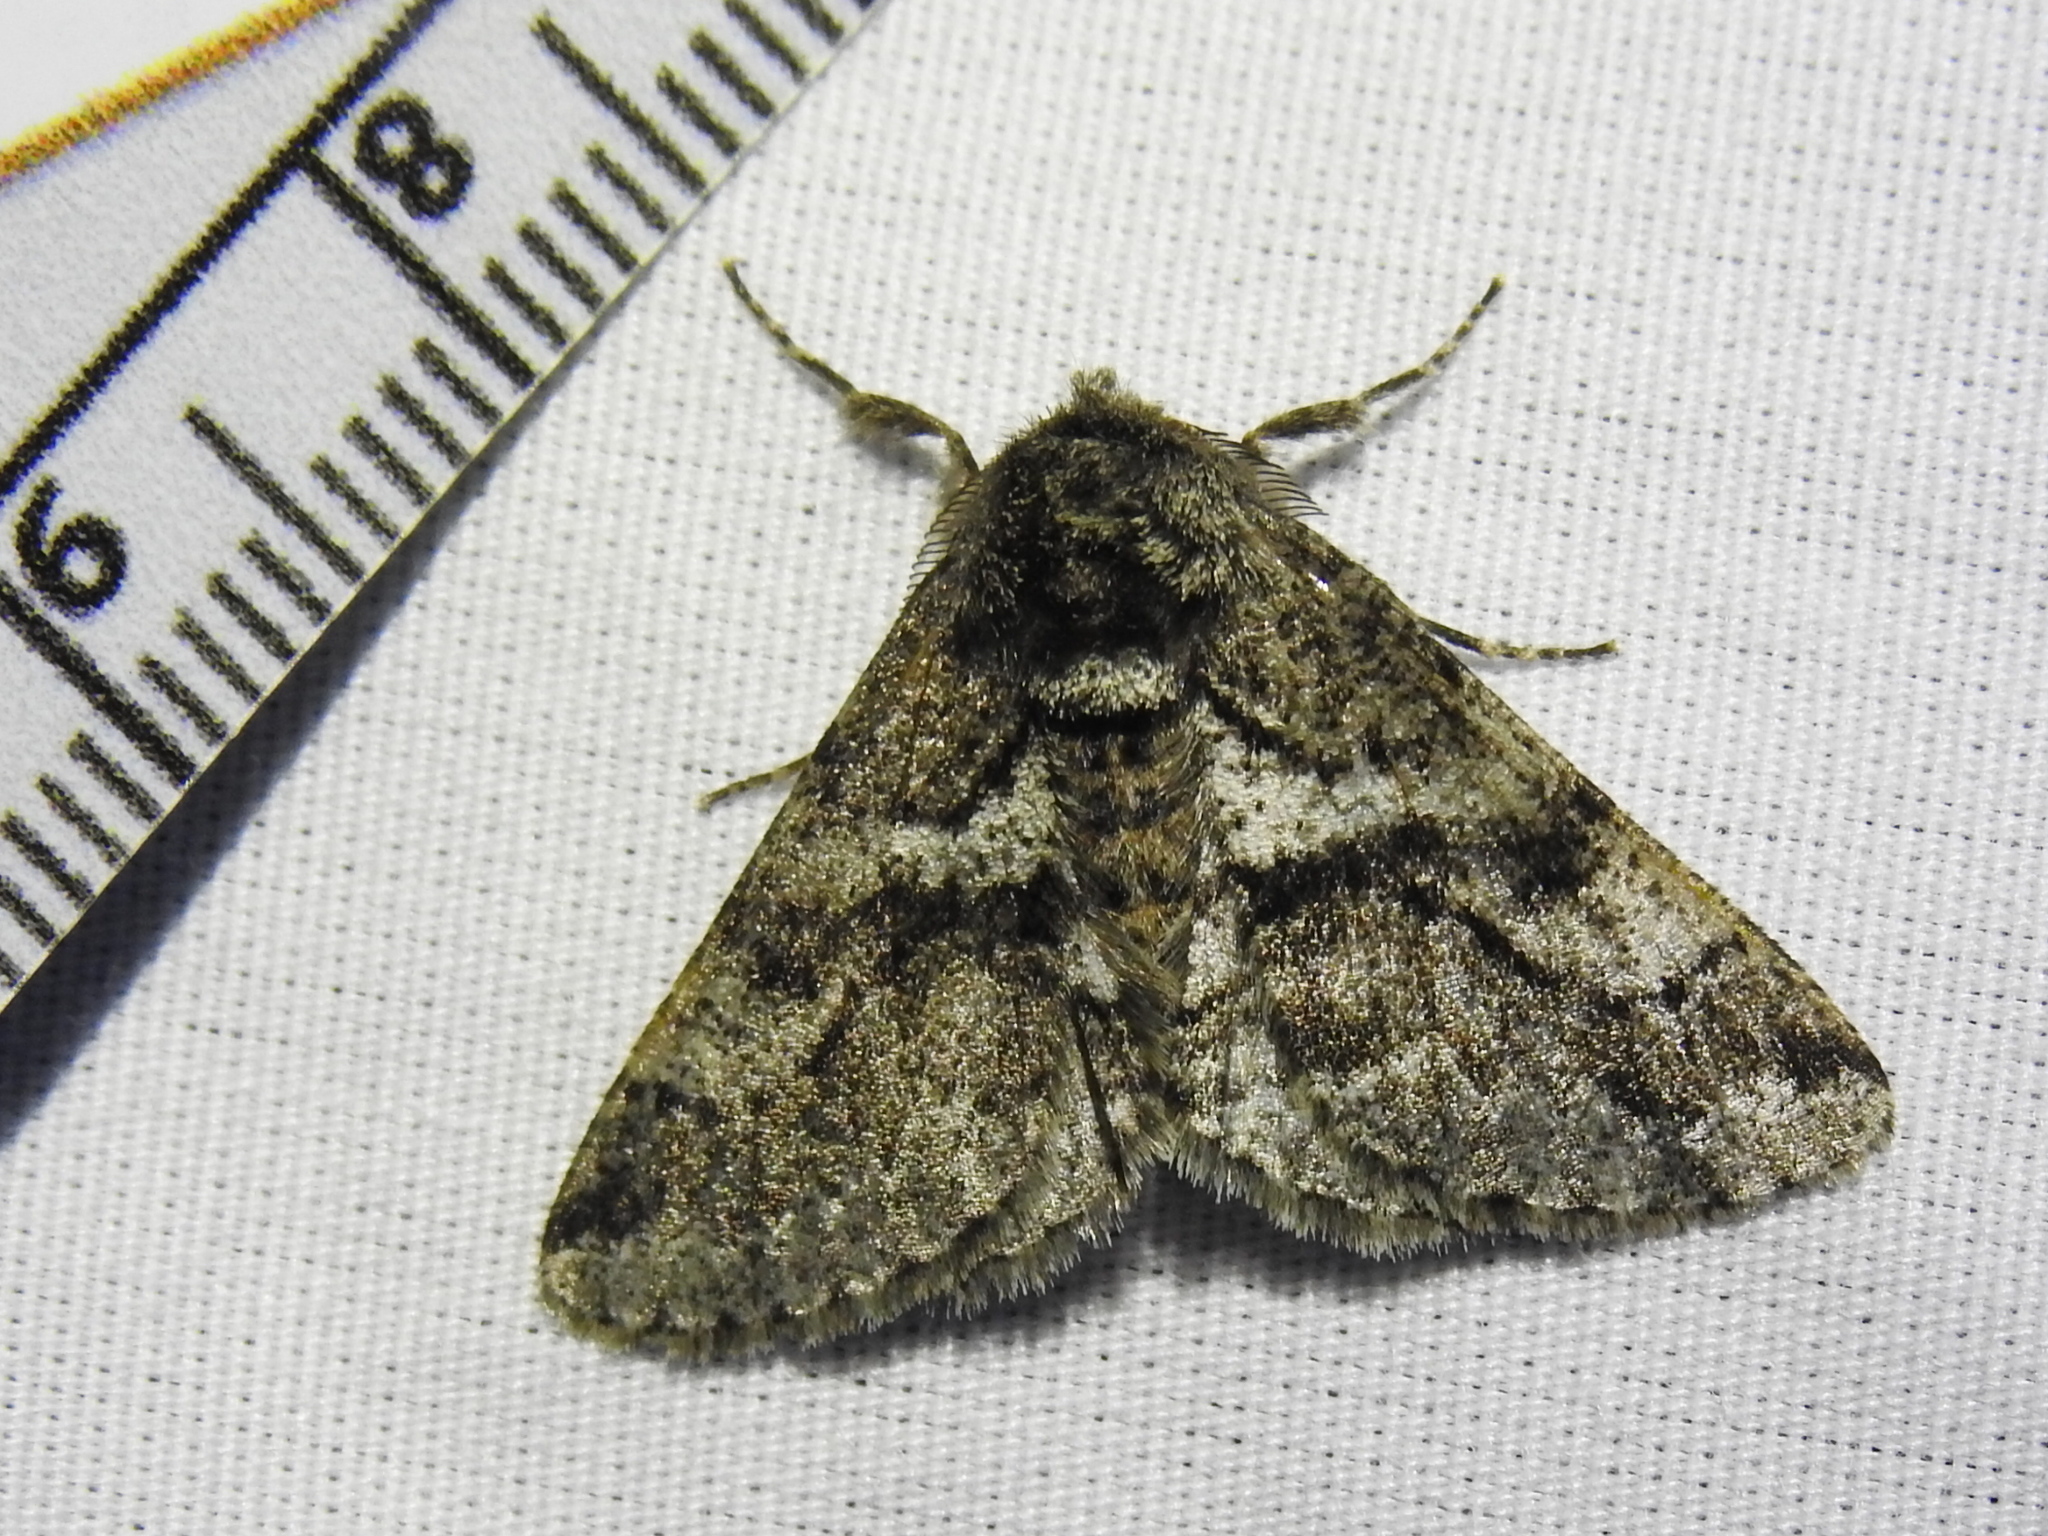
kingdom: Animalia
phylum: Arthropoda
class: Insecta
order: Lepidoptera
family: Geometridae
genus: Lycia
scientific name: Lycia ypsilon
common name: Wooly gray
